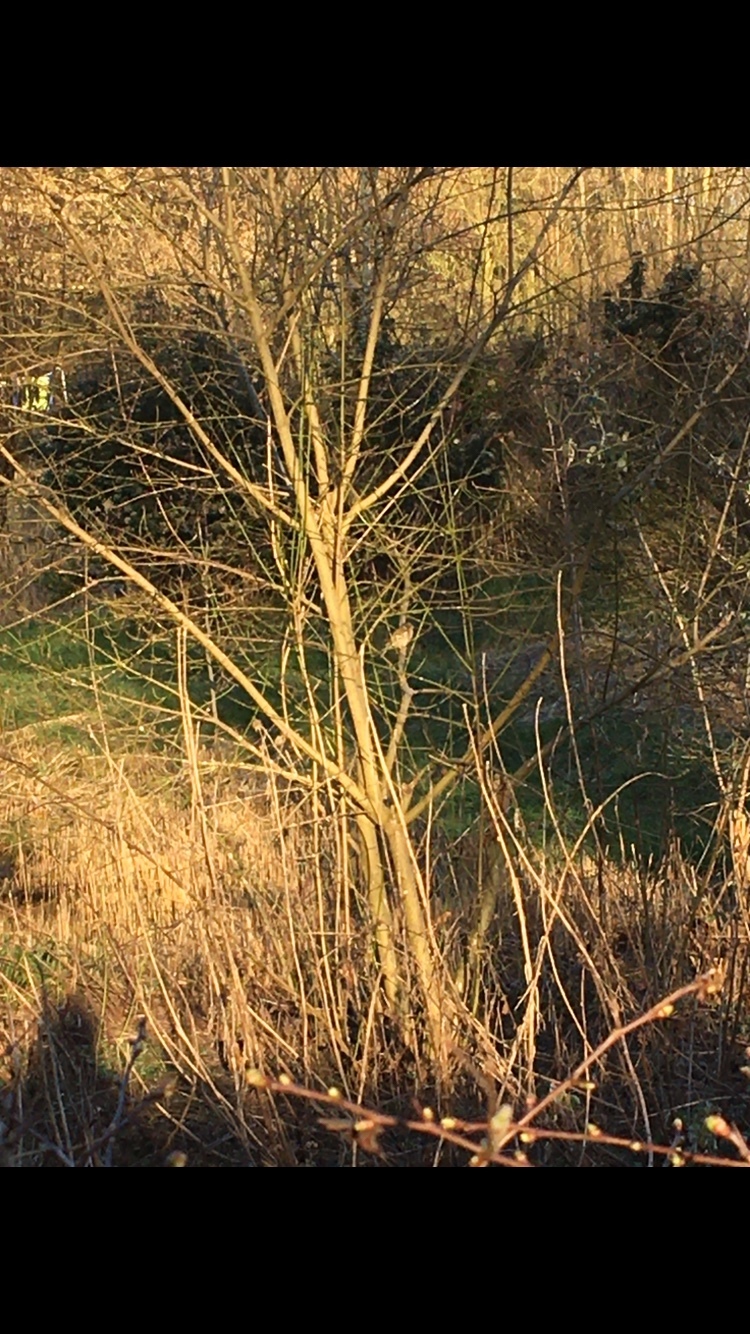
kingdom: Plantae
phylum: Tracheophyta
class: Liliopsida
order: Poales
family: Poaceae
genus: Chloris
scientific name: Chloris chloris
